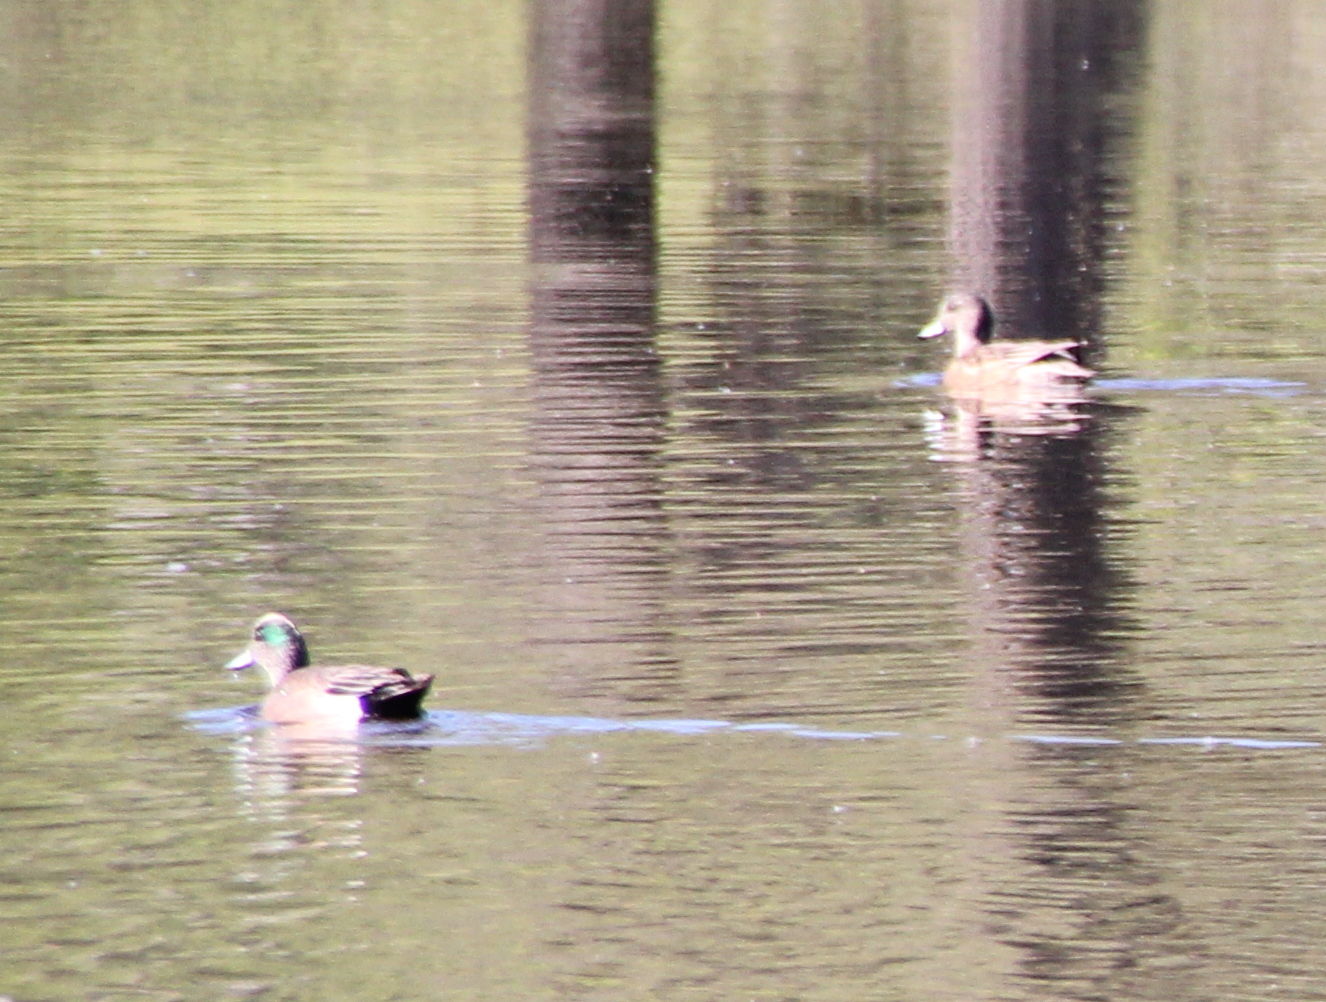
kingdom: Animalia
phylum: Chordata
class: Aves
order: Anseriformes
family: Anatidae
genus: Mareca
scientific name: Mareca americana
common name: American wigeon
